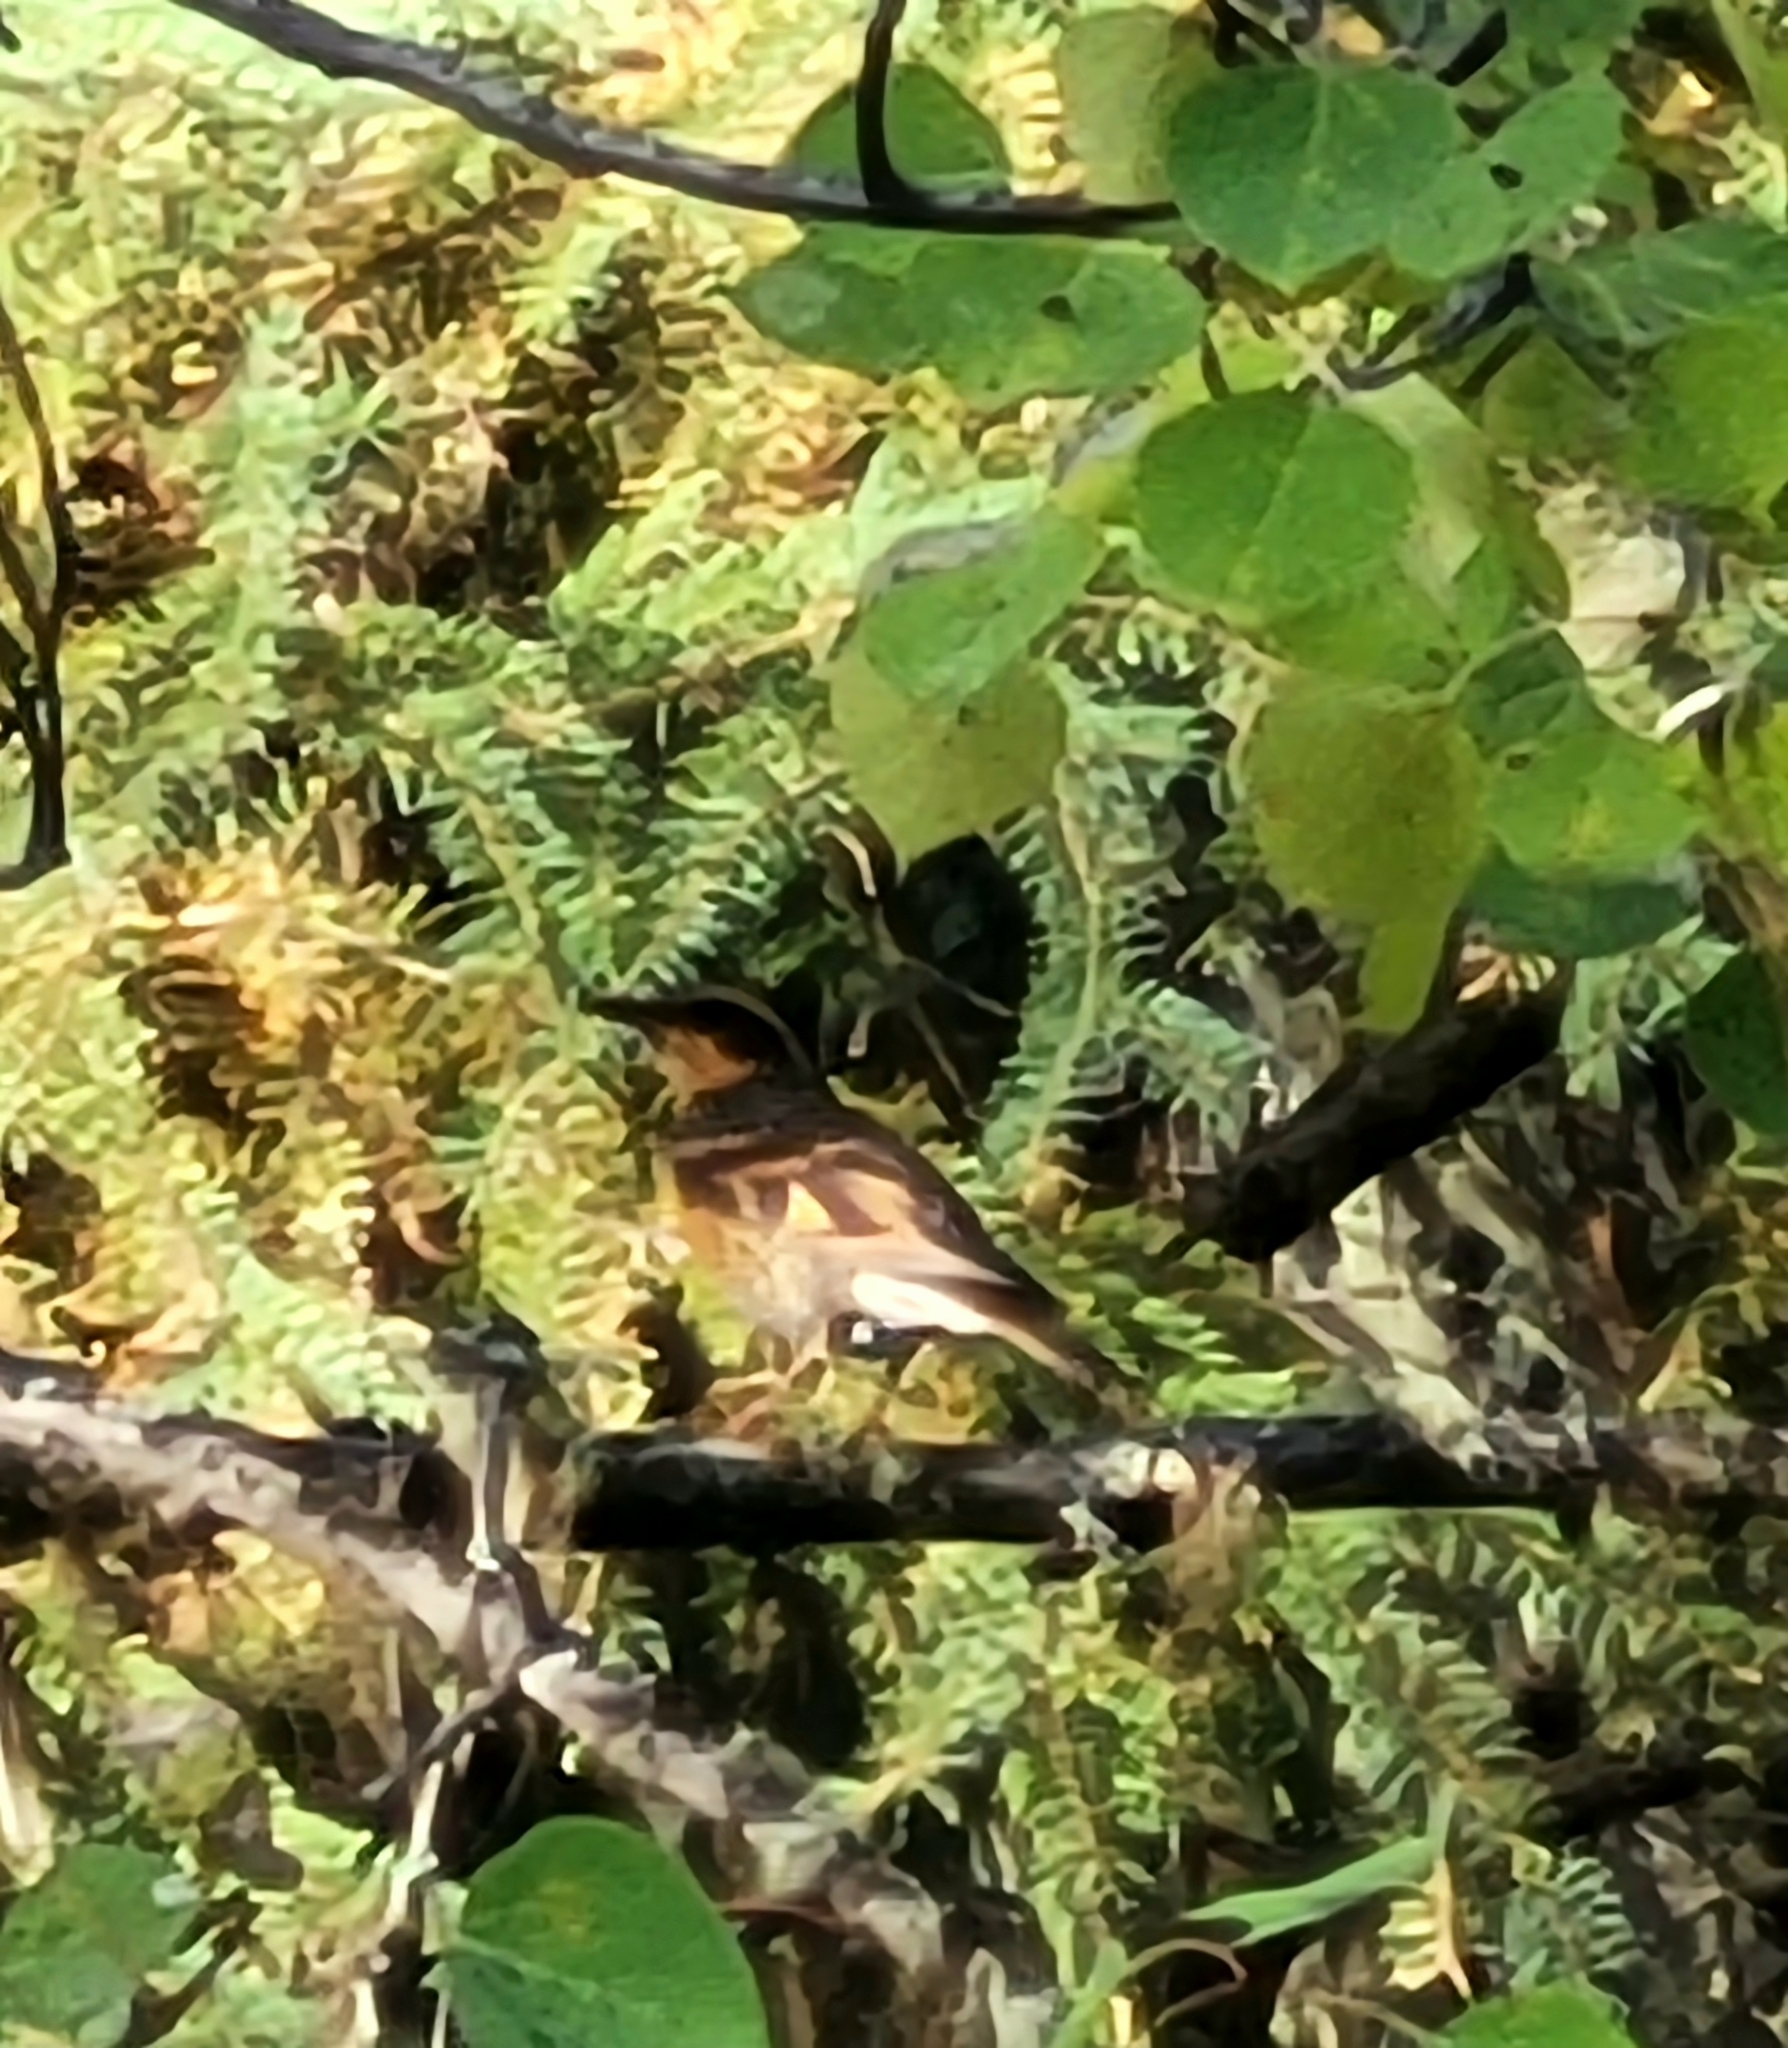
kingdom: Animalia
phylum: Chordata
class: Aves
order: Passeriformes
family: Turdidae
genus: Ixoreus
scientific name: Ixoreus naevius
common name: Varied thrush
